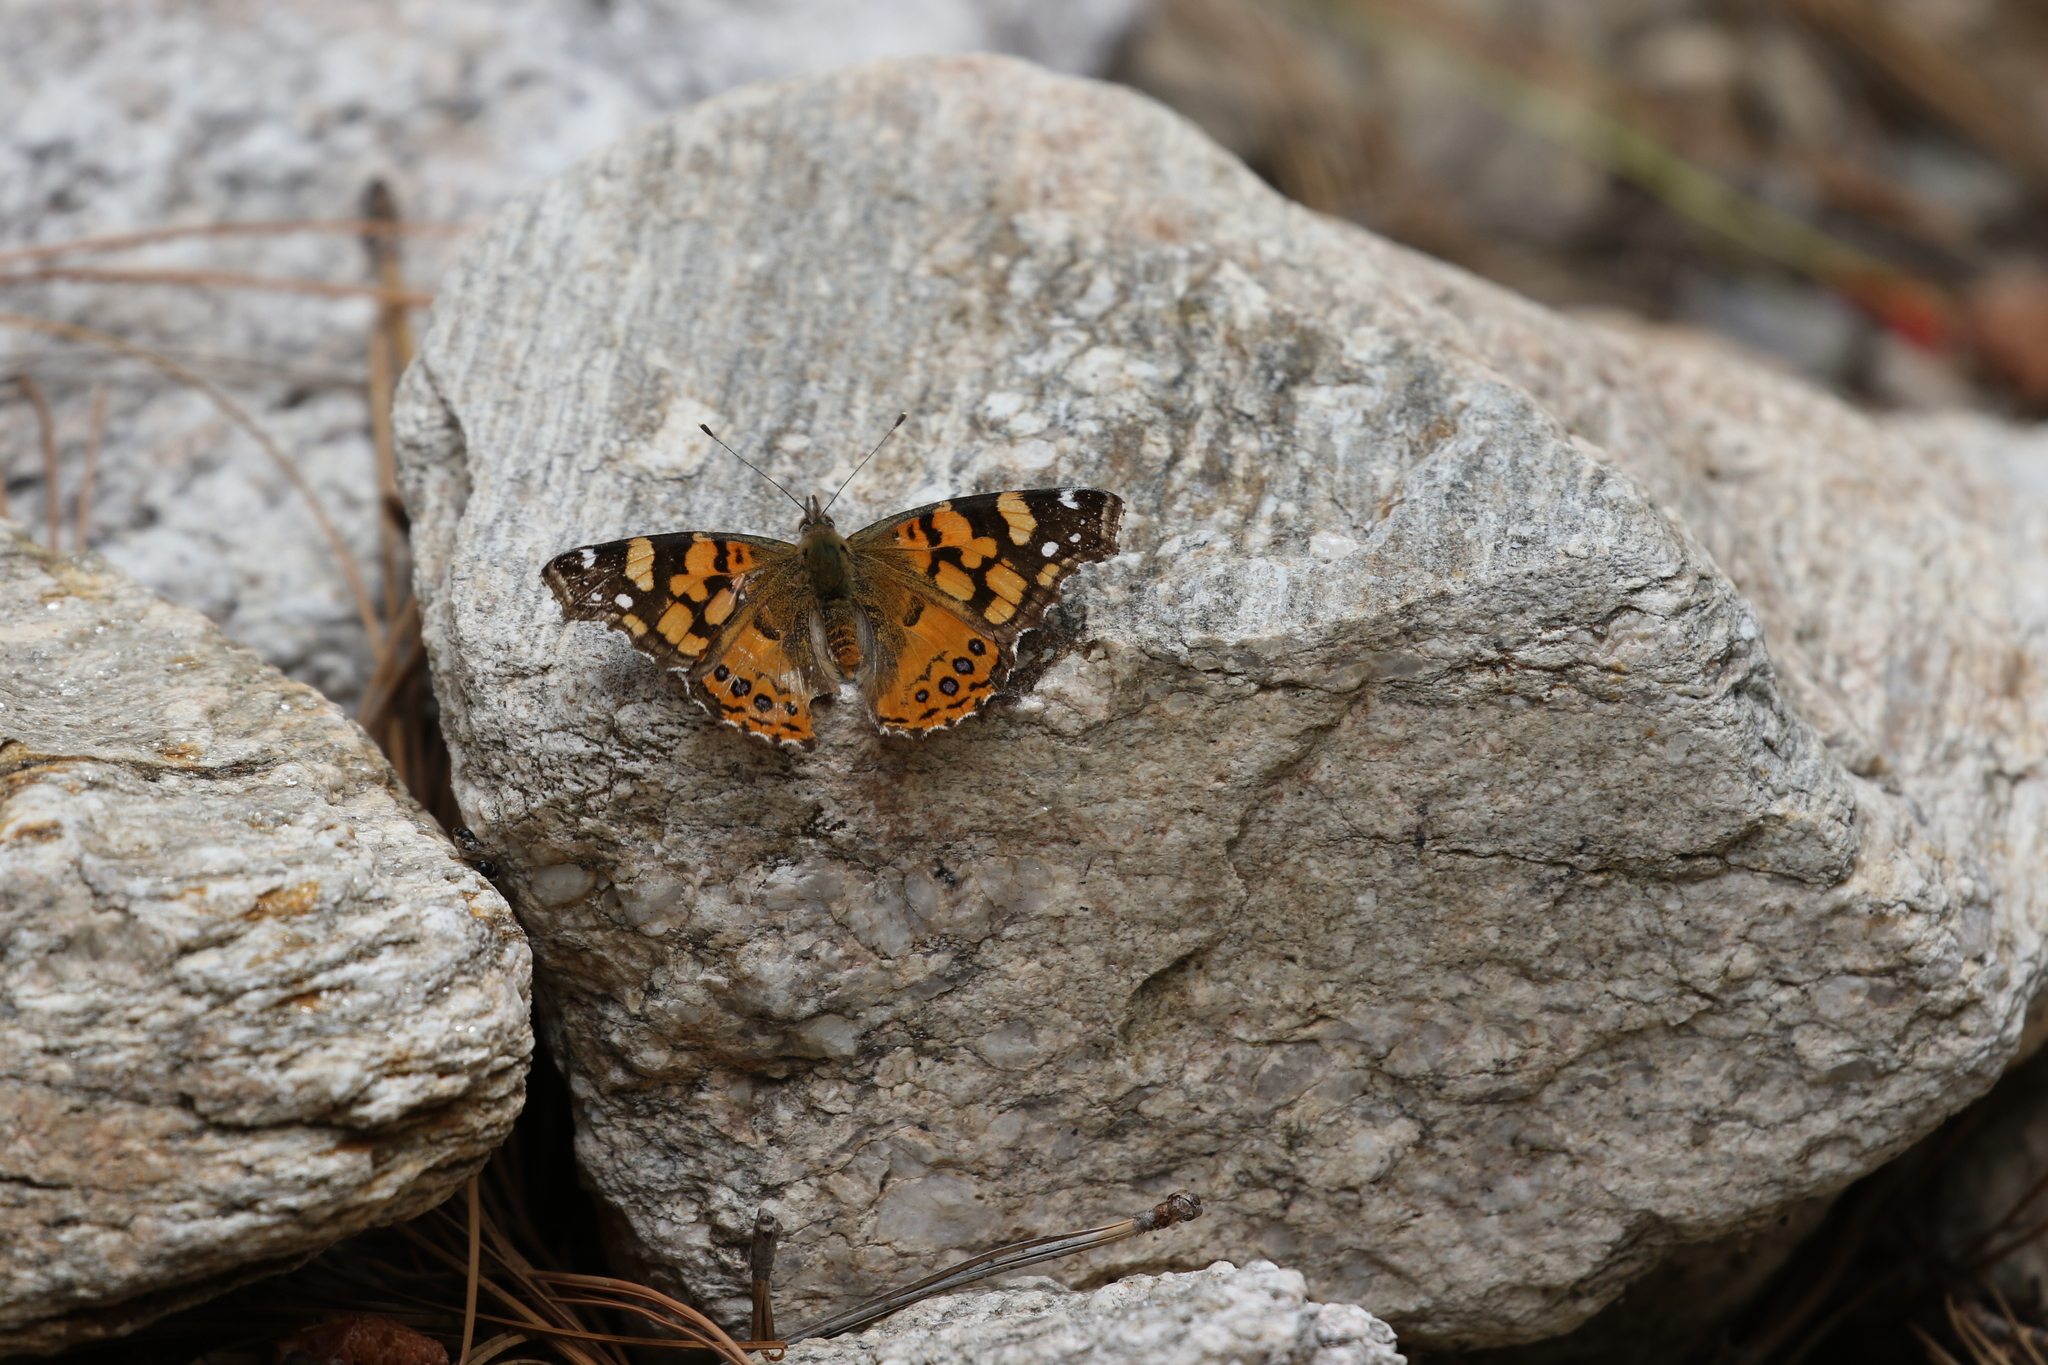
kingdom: Animalia
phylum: Arthropoda
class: Insecta
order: Lepidoptera
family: Nymphalidae
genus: Vanessa
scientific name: Vanessa annabella
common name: West coast lady
